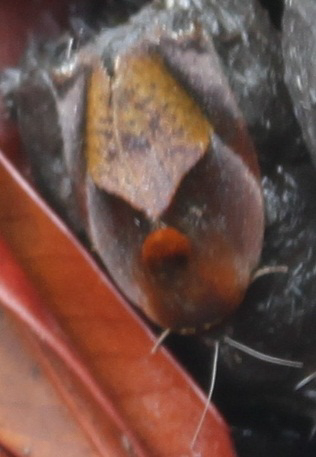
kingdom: Animalia
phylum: Arthropoda
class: Insecta
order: Lepidoptera
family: Hyblaeidae
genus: Hyblaea
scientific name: Hyblaea firmamentum
